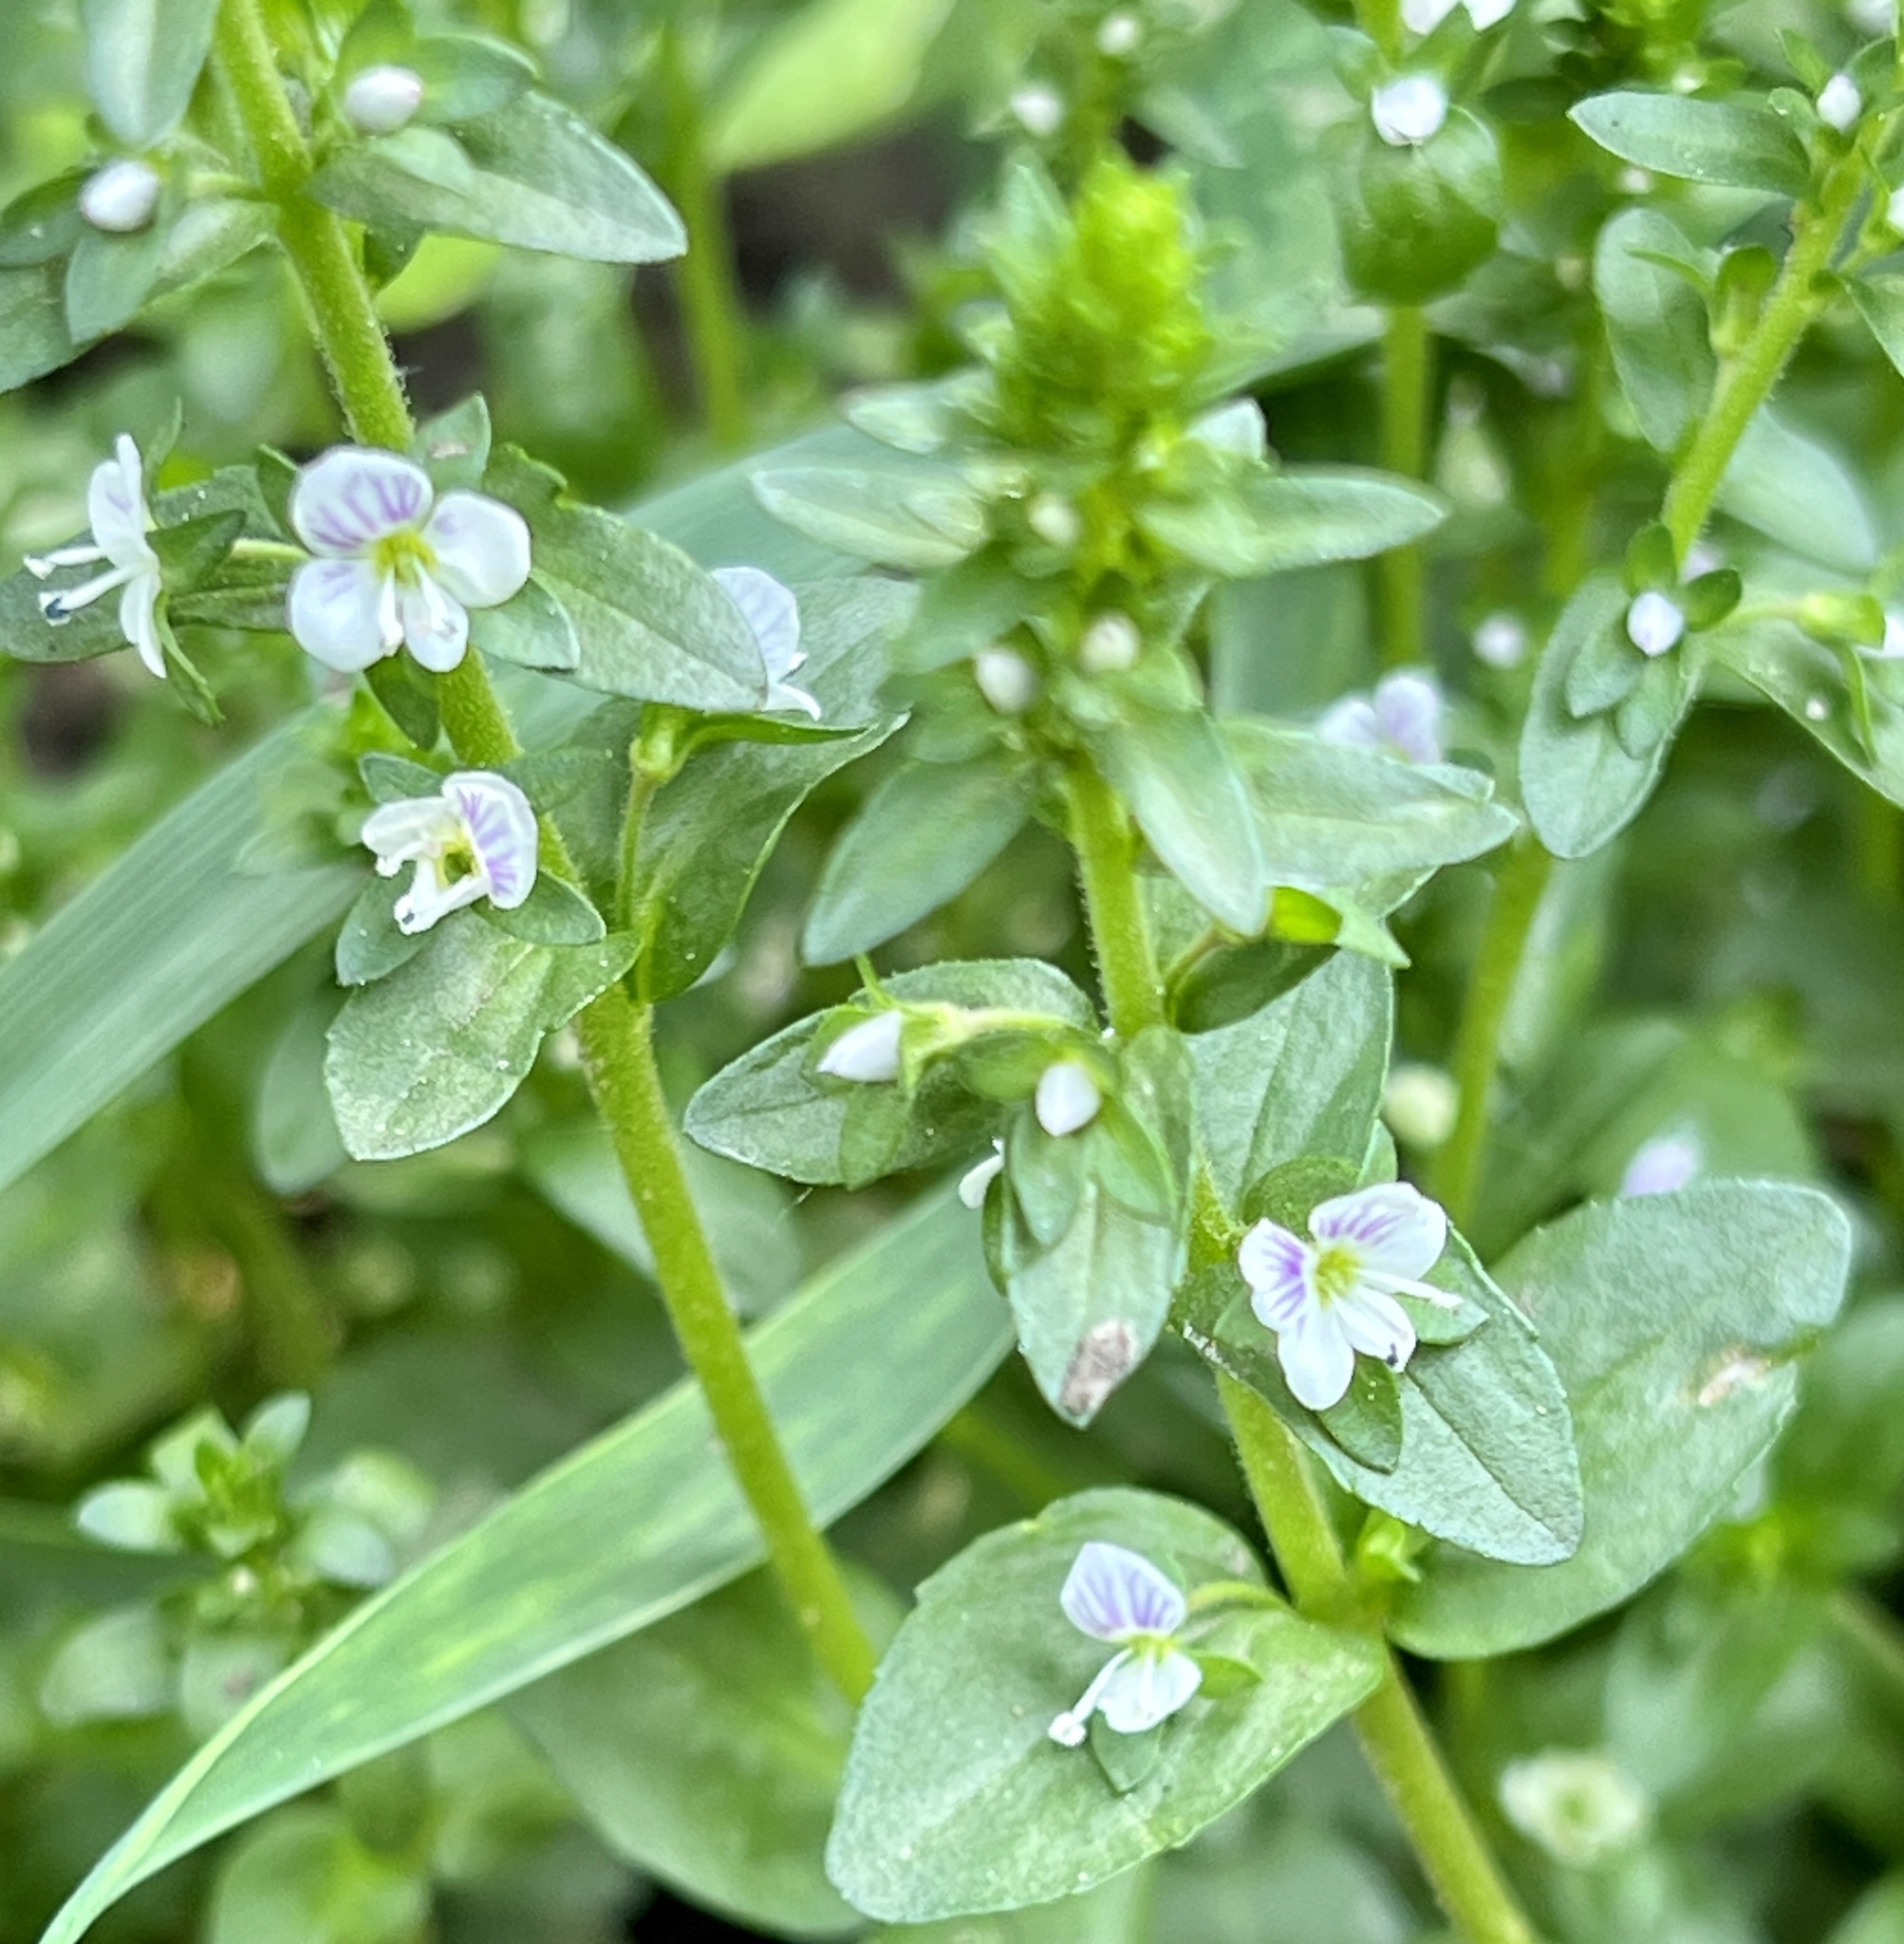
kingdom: Plantae
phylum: Tracheophyta
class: Magnoliopsida
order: Lamiales
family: Plantaginaceae
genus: Veronica
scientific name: Veronica serpyllifolia
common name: Thyme-leaved speedwell
